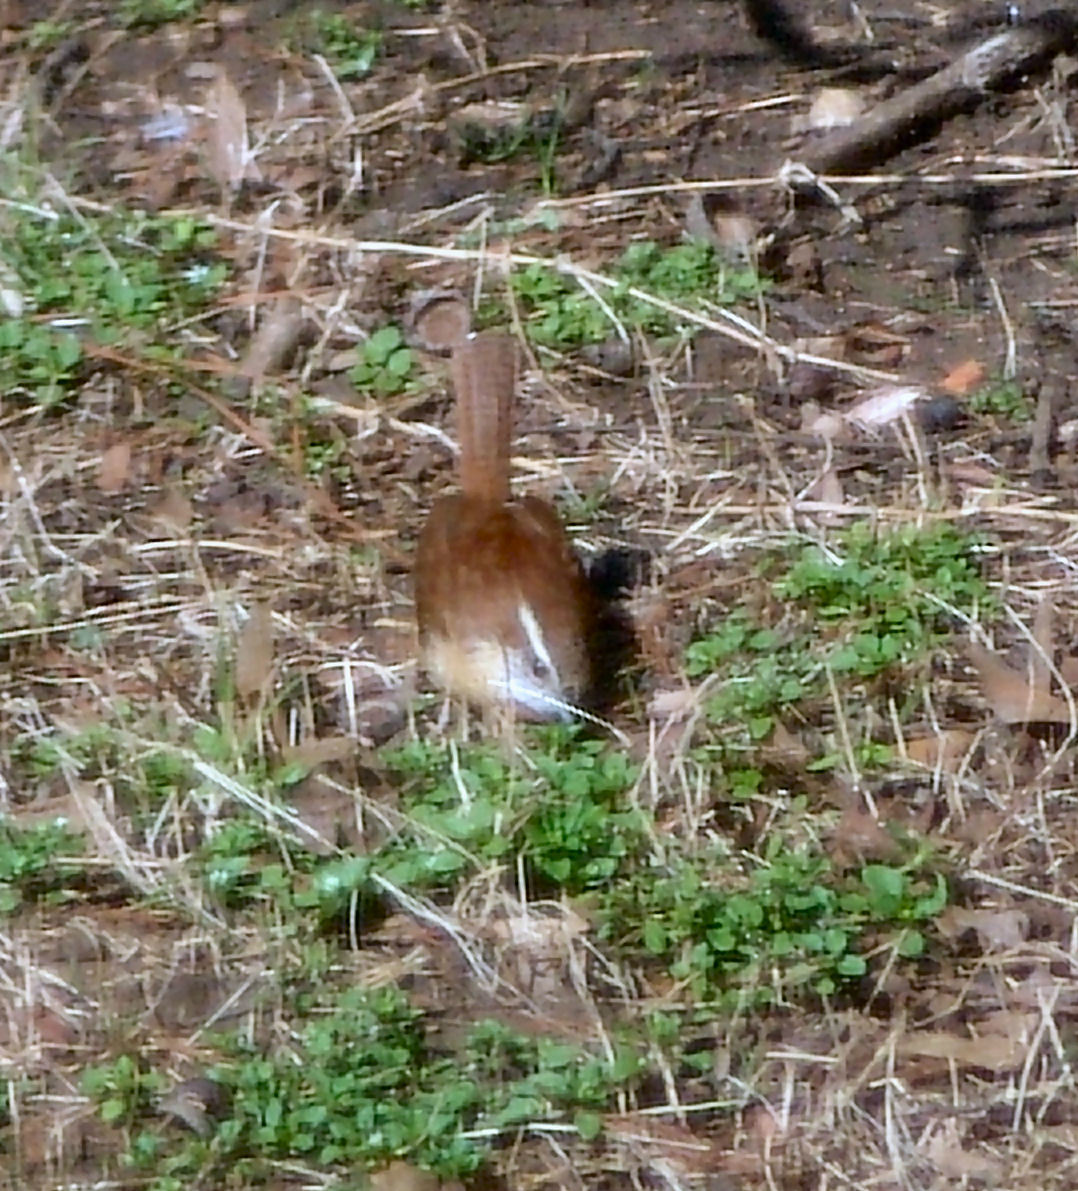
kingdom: Animalia
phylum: Chordata
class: Aves
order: Passeriformes
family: Troglodytidae
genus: Thryothorus
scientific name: Thryothorus ludovicianus
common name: Carolina wren
